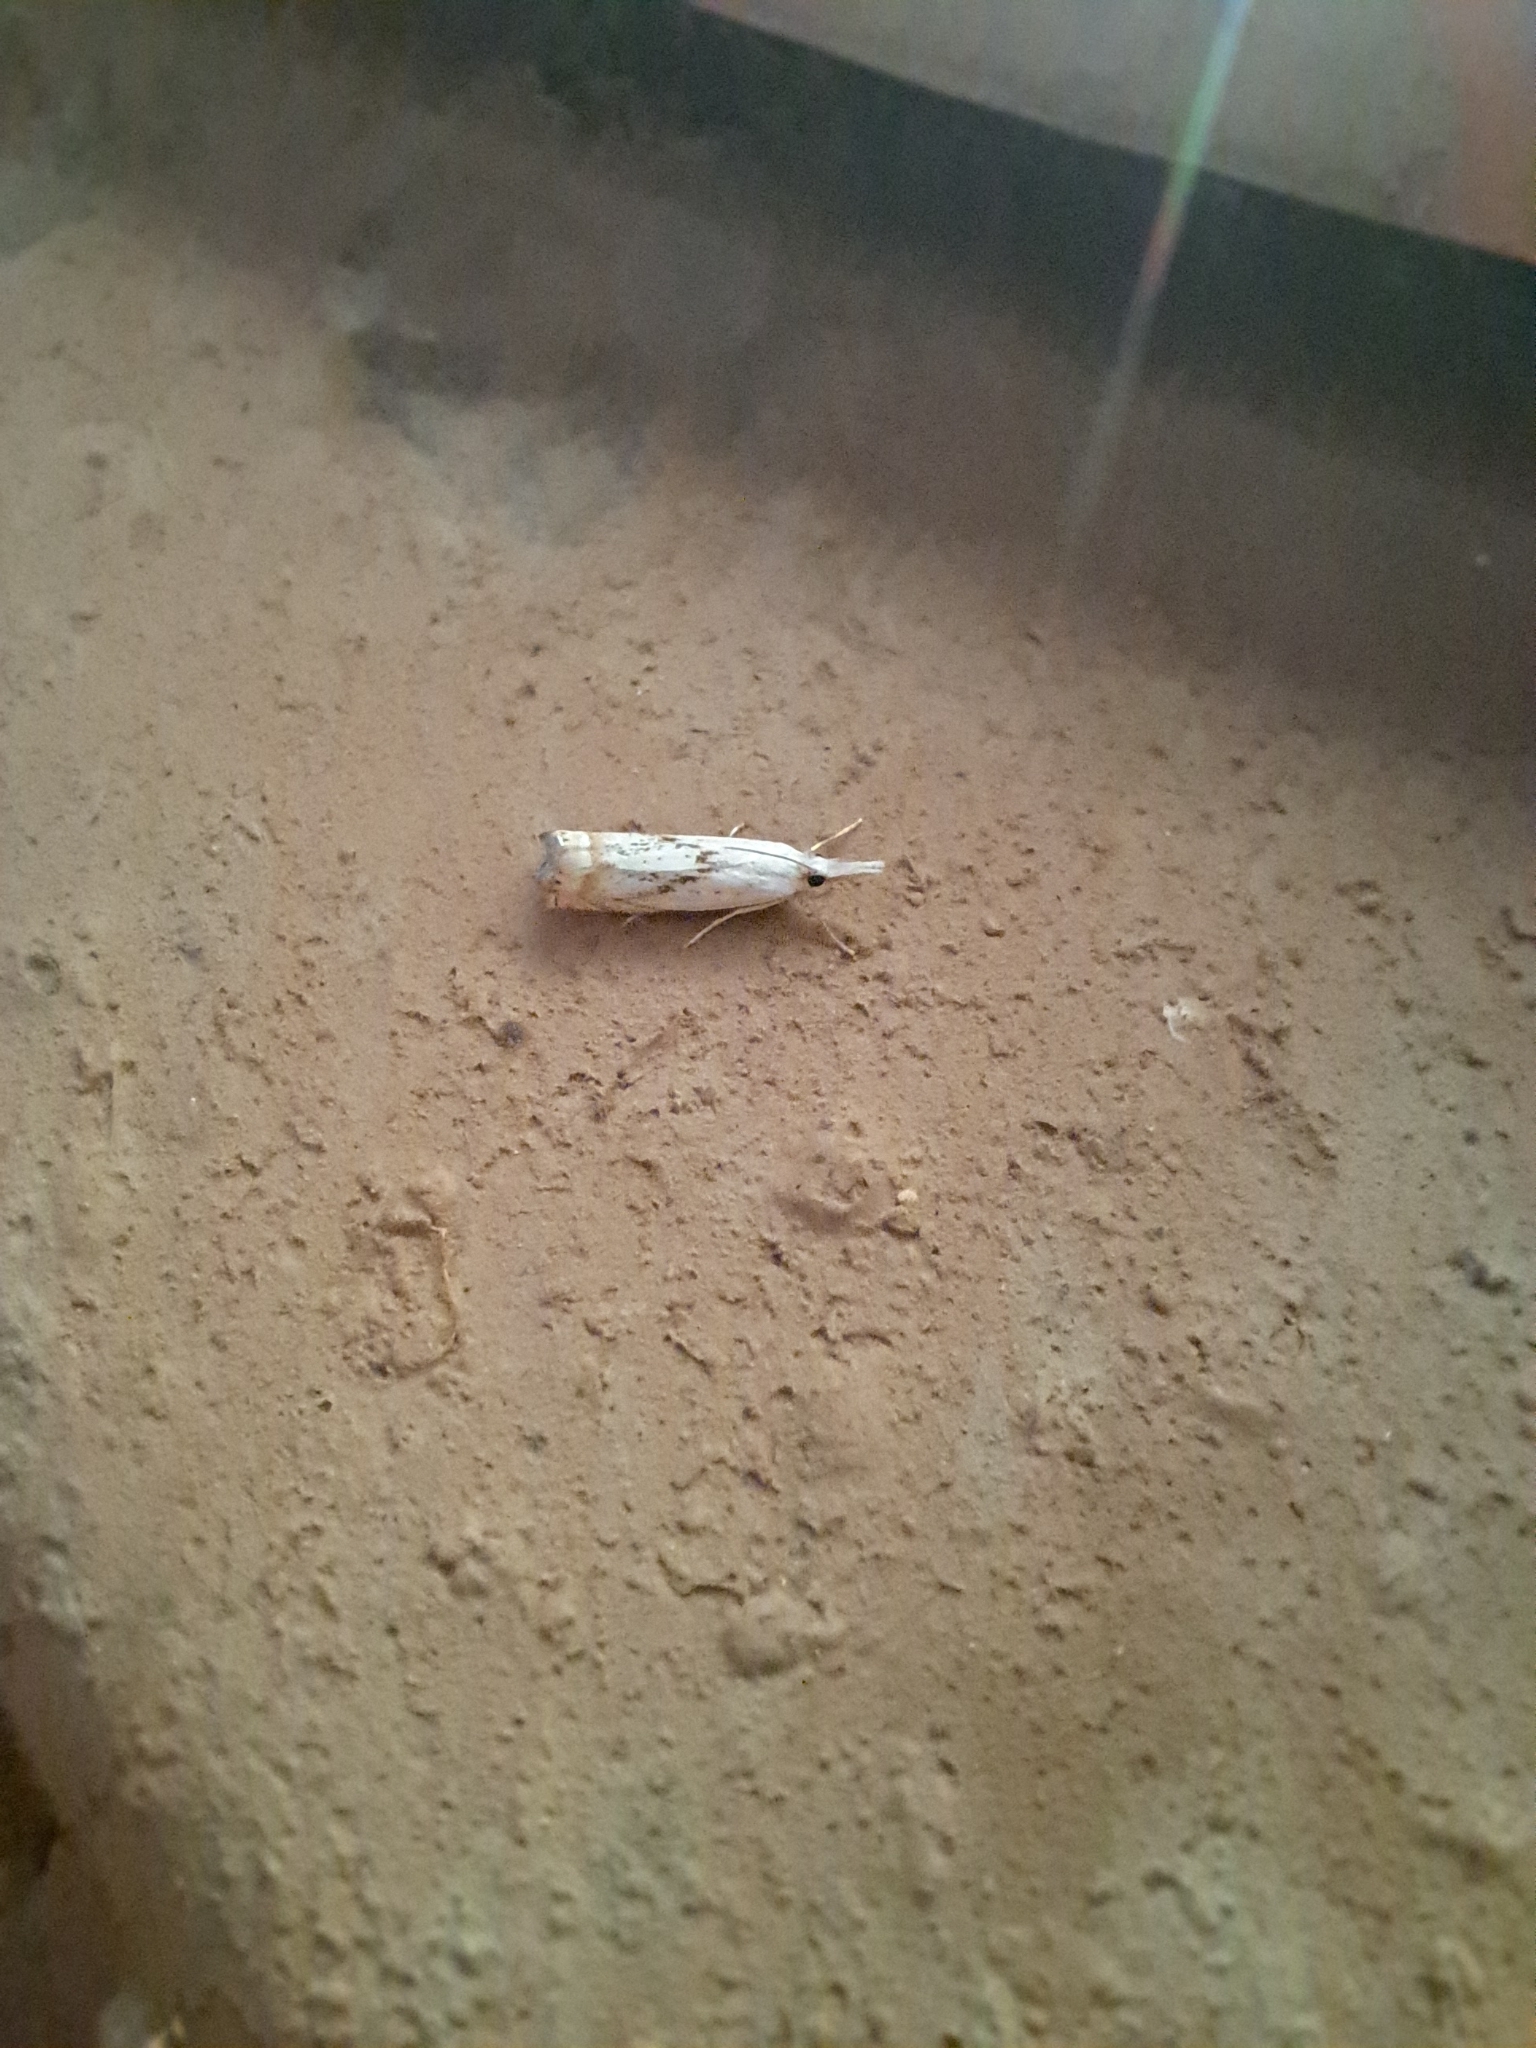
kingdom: Animalia
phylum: Arthropoda
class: Insecta
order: Lepidoptera
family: Crambidae
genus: Microcrambus
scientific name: Microcrambus elegans
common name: Elegant grass-veneer
